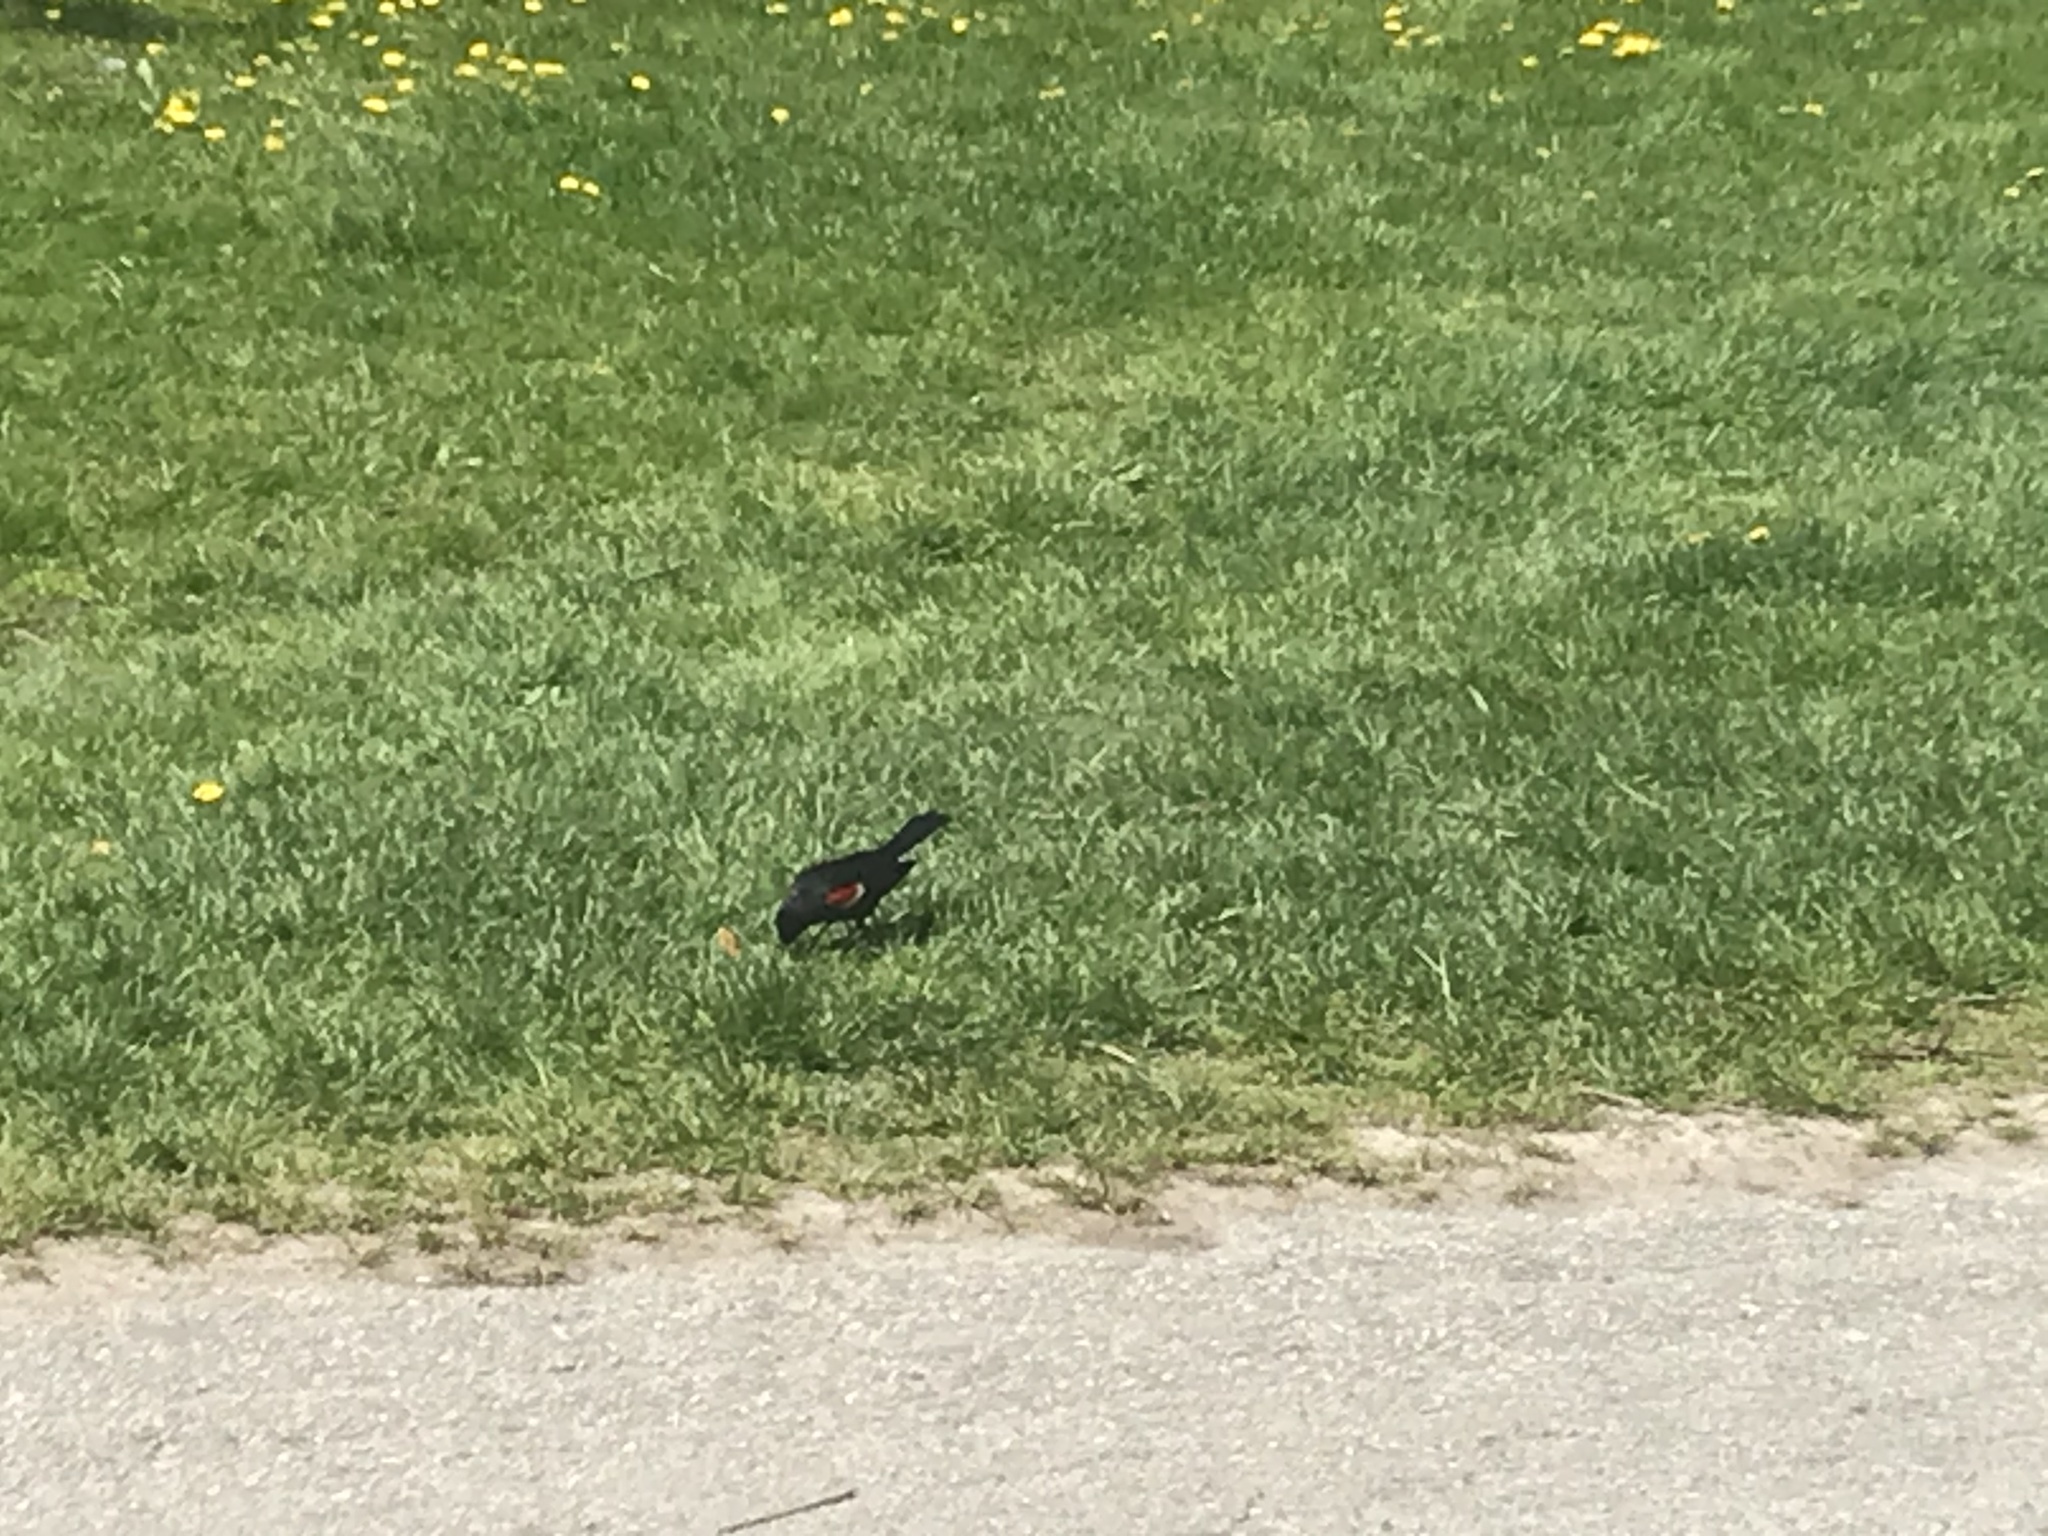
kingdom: Animalia
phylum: Chordata
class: Aves
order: Passeriformes
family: Icteridae
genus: Agelaius
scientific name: Agelaius phoeniceus
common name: Red-winged blackbird
